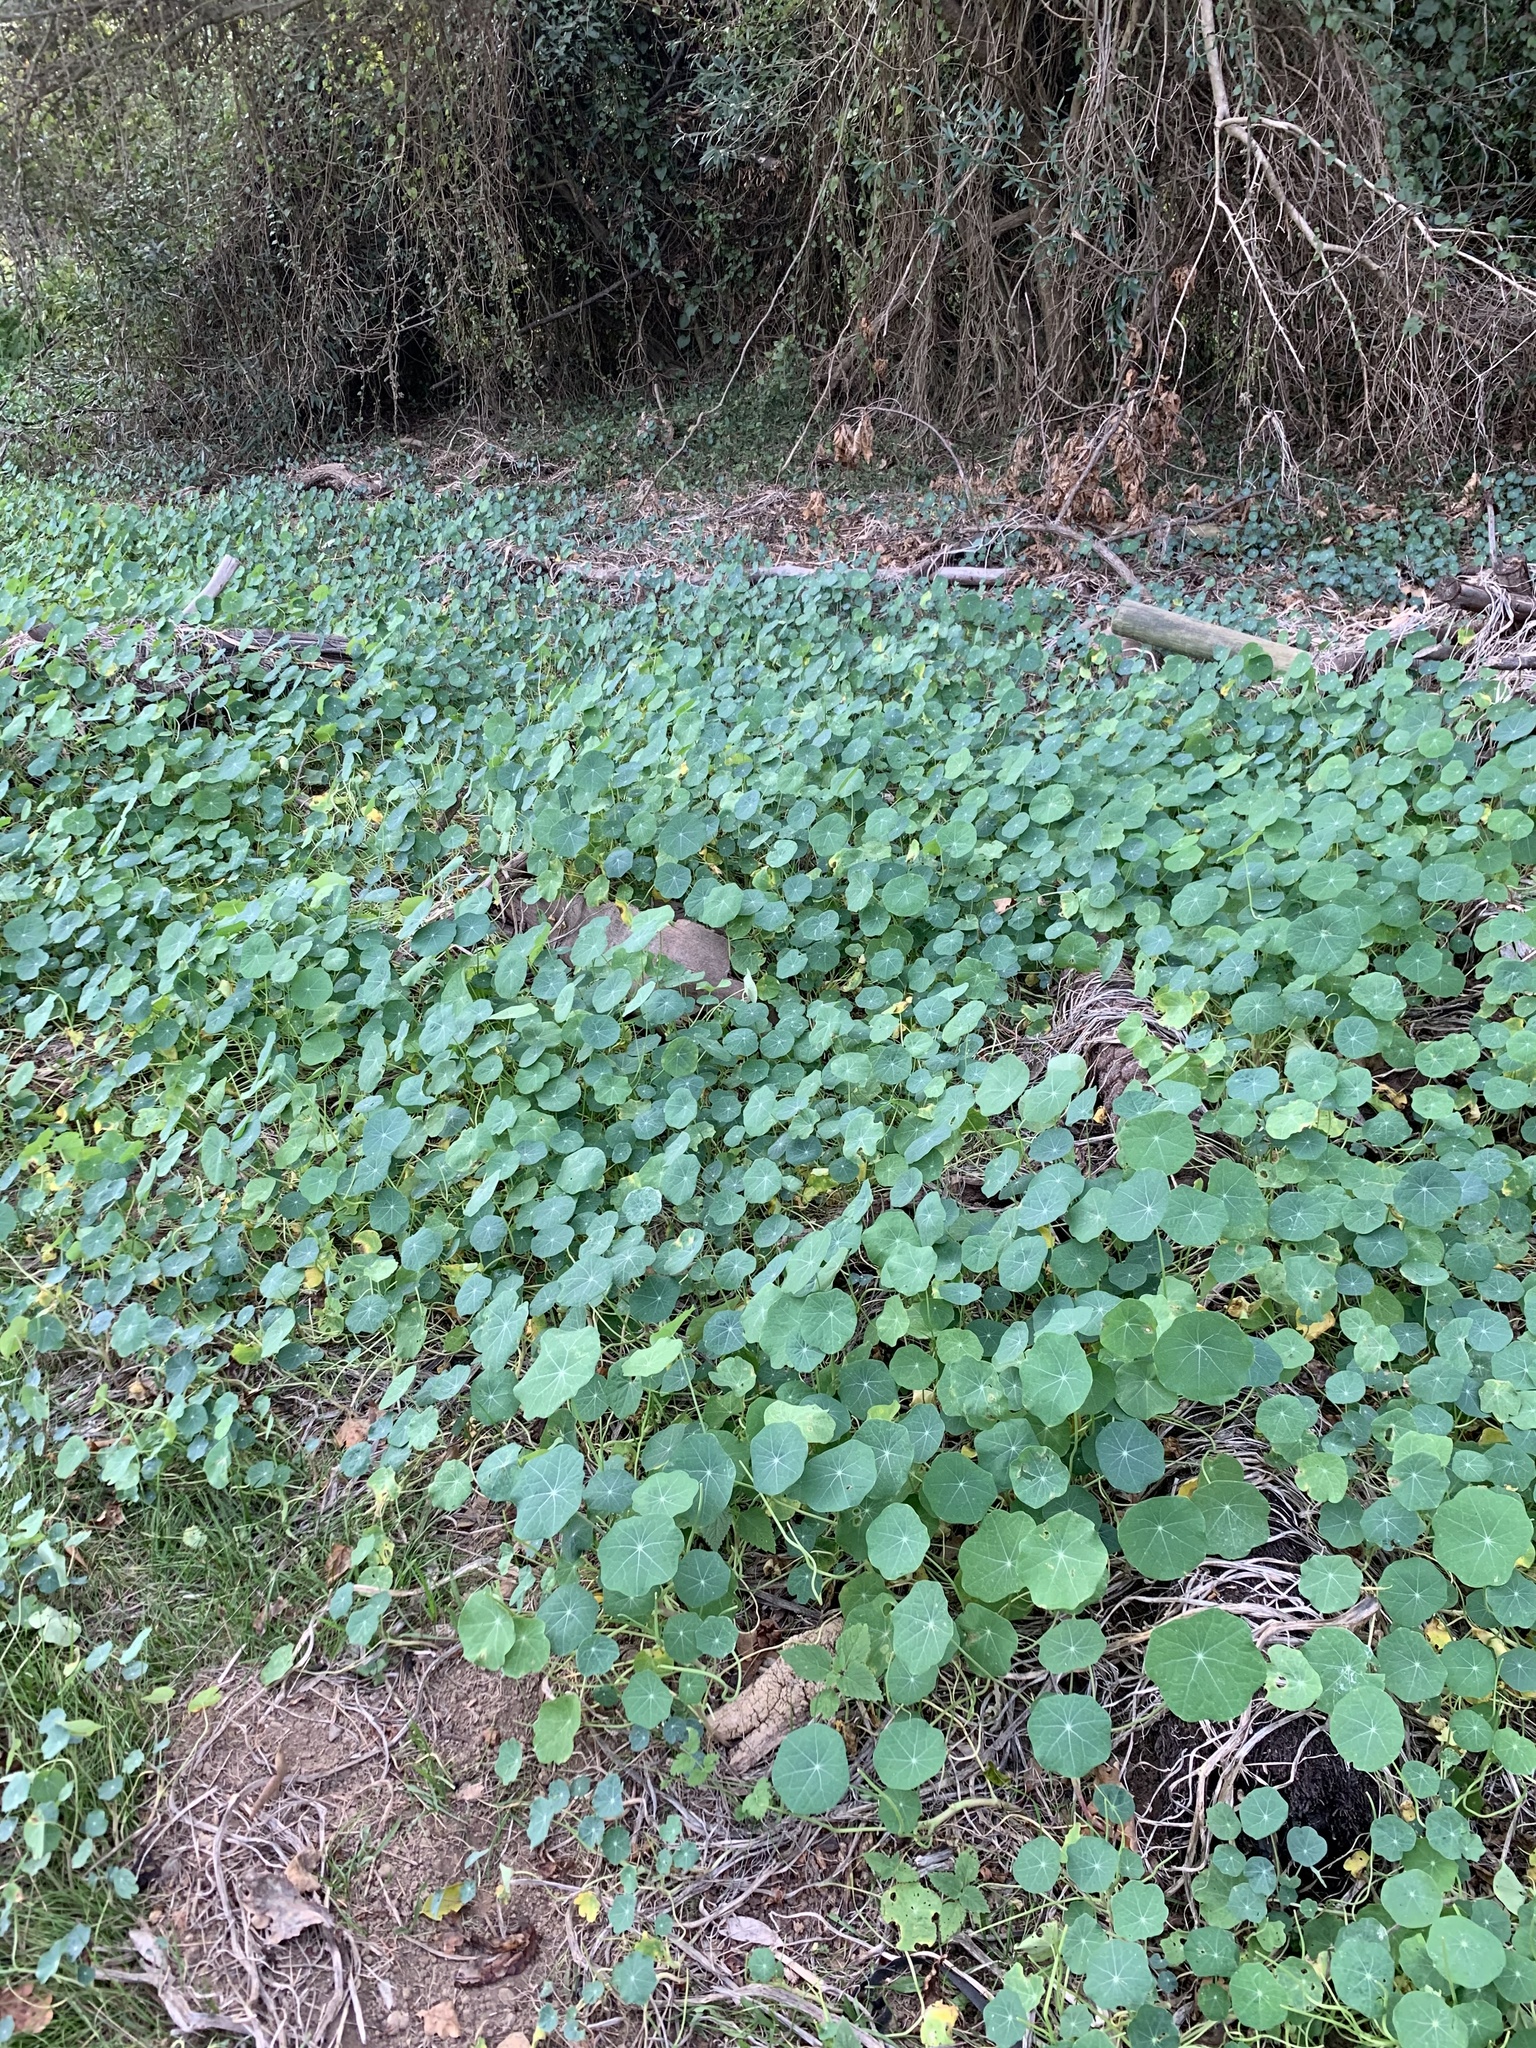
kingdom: Plantae
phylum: Tracheophyta
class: Magnoliopsida
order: Brassicales
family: Tropaeolaceae
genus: Tropaeolum
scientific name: Tropaeolum majus
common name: Nasturtium
